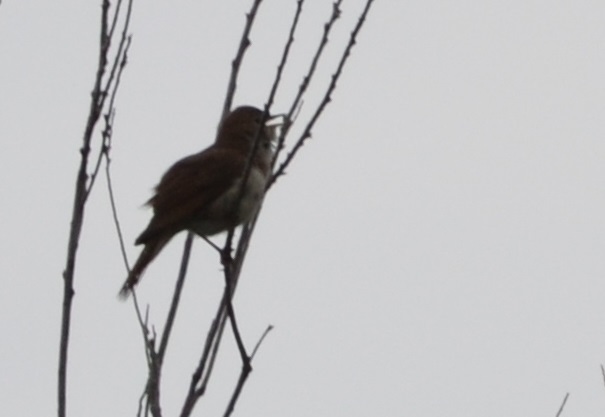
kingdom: Animalia
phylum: Chordata
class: Aves
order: Passeriformes
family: Muscicapidae
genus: Luscinia
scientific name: Luscinia megarhynchos
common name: Common nightingale
